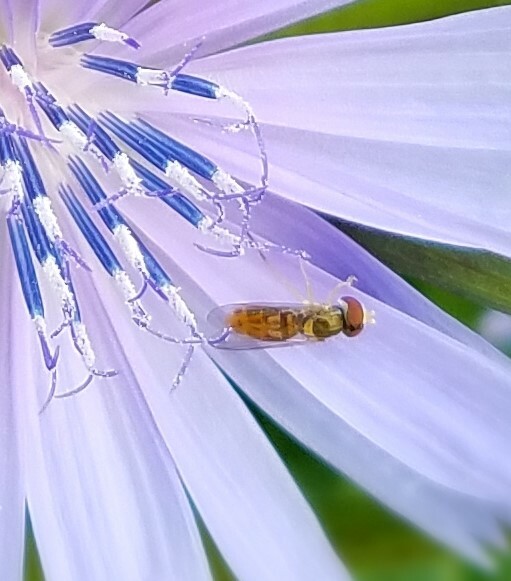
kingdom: Animalia
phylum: Arthropoda
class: Insecta
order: Diptera
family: Syrphidae
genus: Toxomerus
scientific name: Toxomerus marginatus
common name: Syrphid fly
